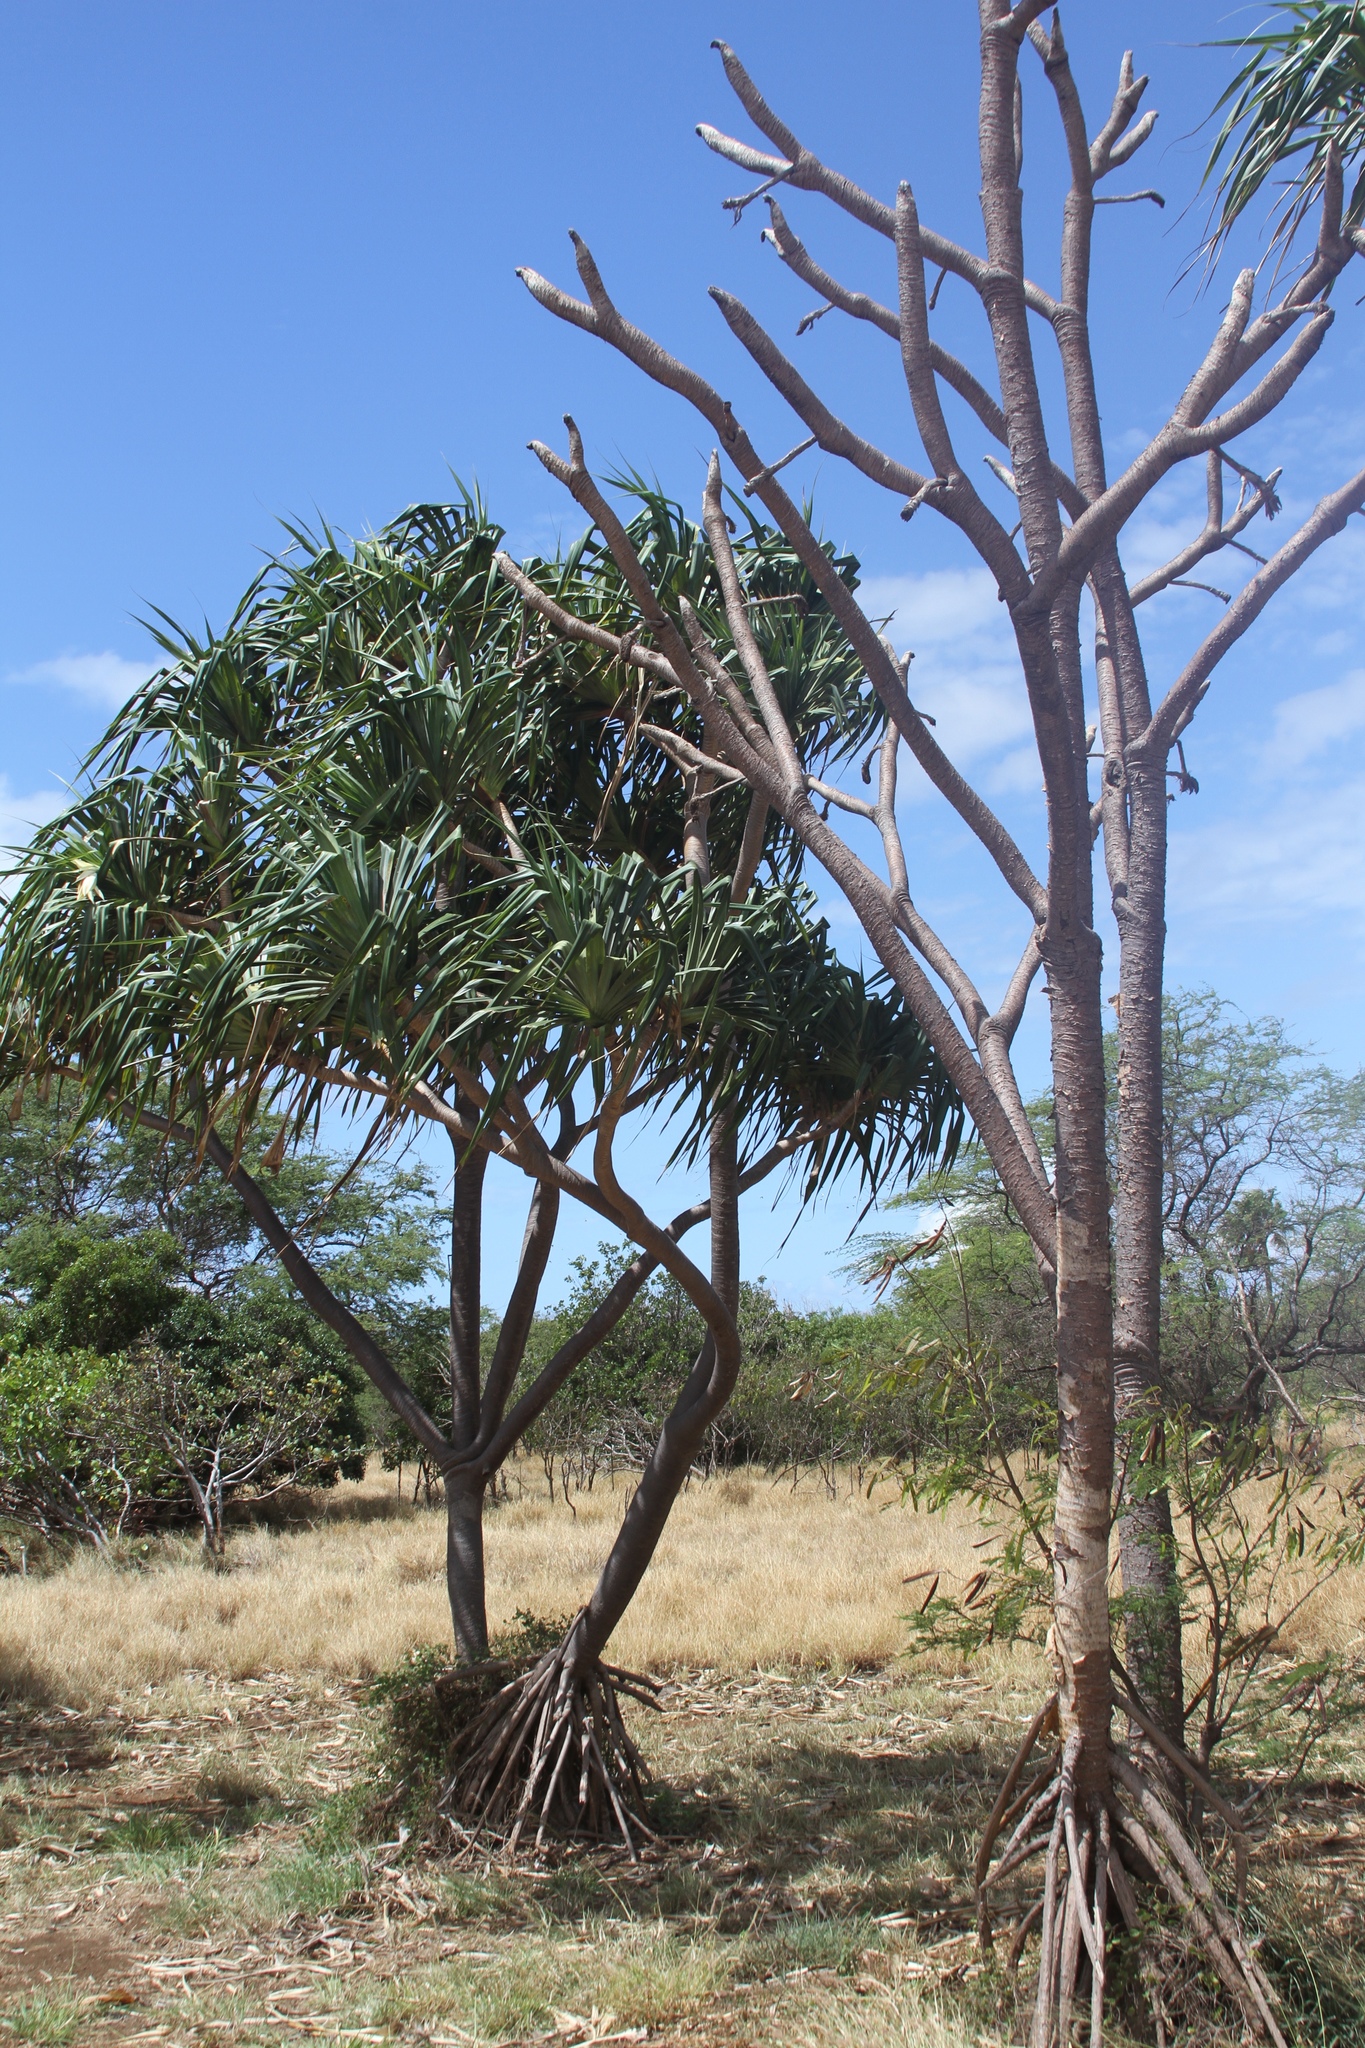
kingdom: Plantae
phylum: Tracheophyta
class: Liliopsida
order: Pandanales
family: Pandanaceae
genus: Pandanus
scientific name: Pandanus tectorius
